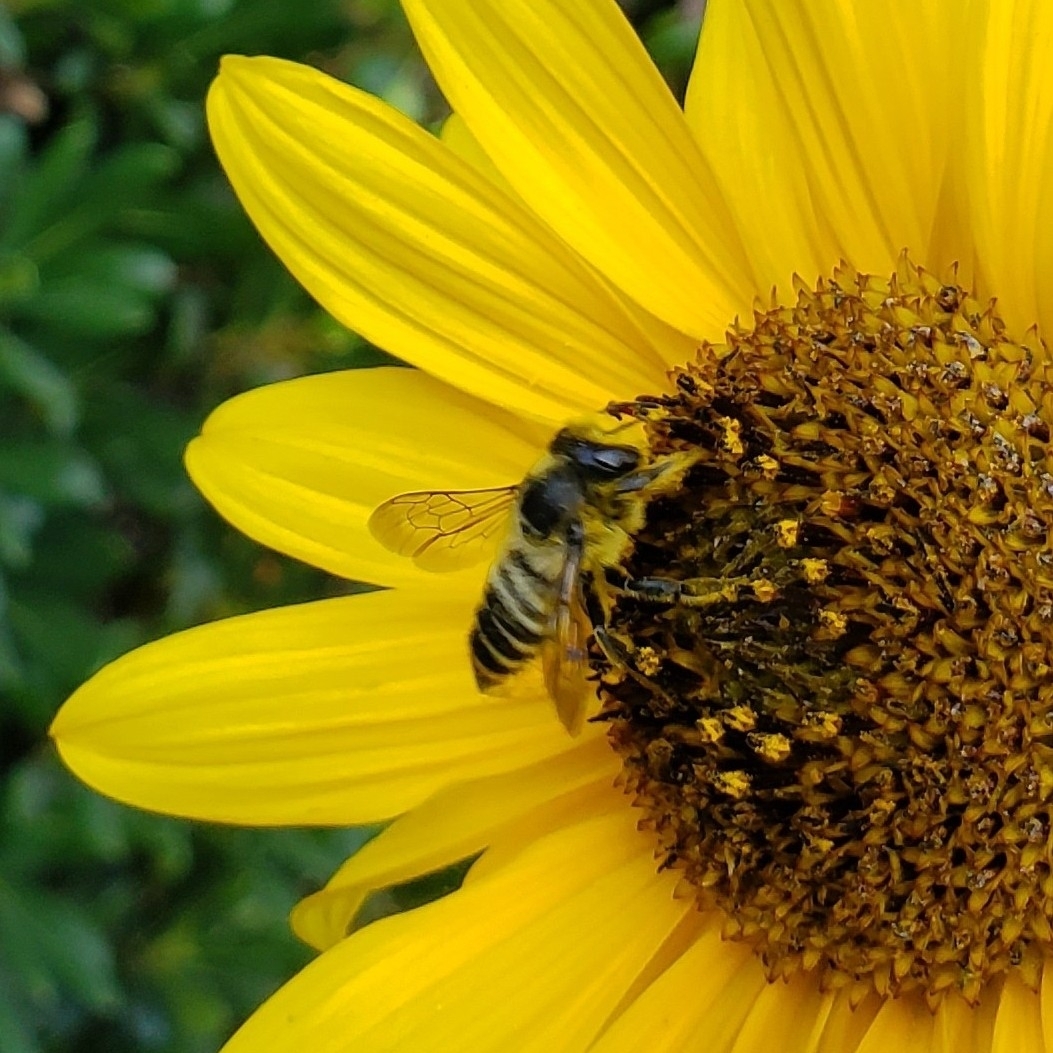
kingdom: Animalia
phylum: Arthropoda
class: Insecta
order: Hymenoptera
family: Megachilidae
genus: Megachile
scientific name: Megachile perihirta
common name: Western leafcutter
